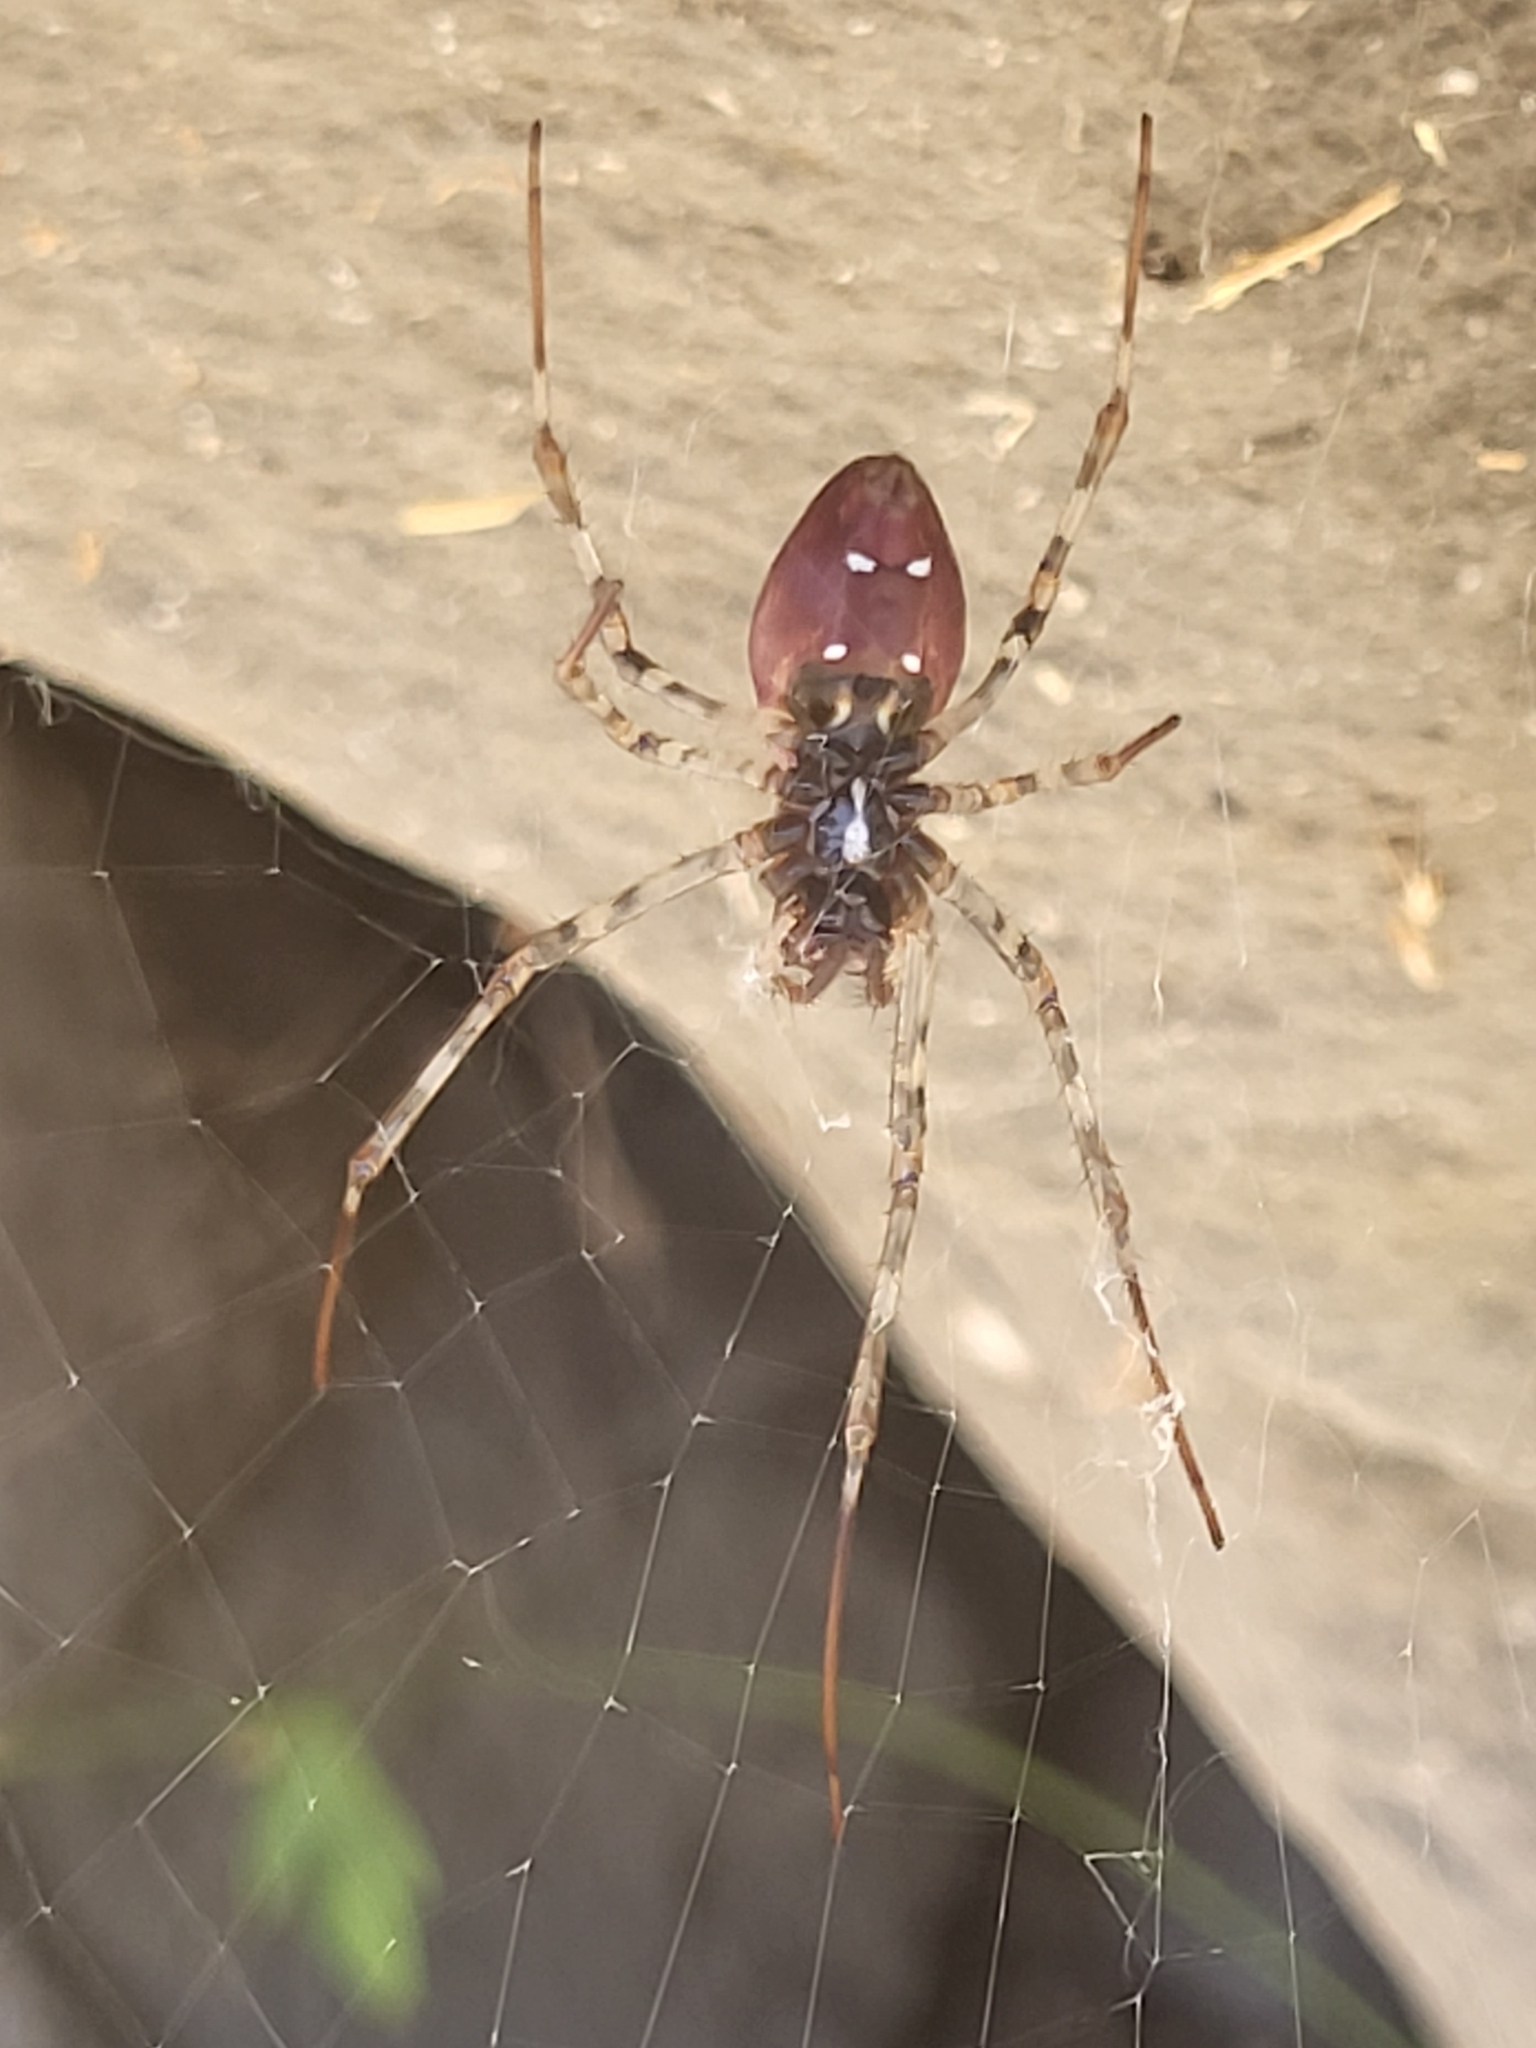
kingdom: Animalia
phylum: Arthropoda
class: Arachnida
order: Araneae
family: Araneidae
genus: Nephilingis
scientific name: Nephilingis borbonica
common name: Reunion hermit spider
